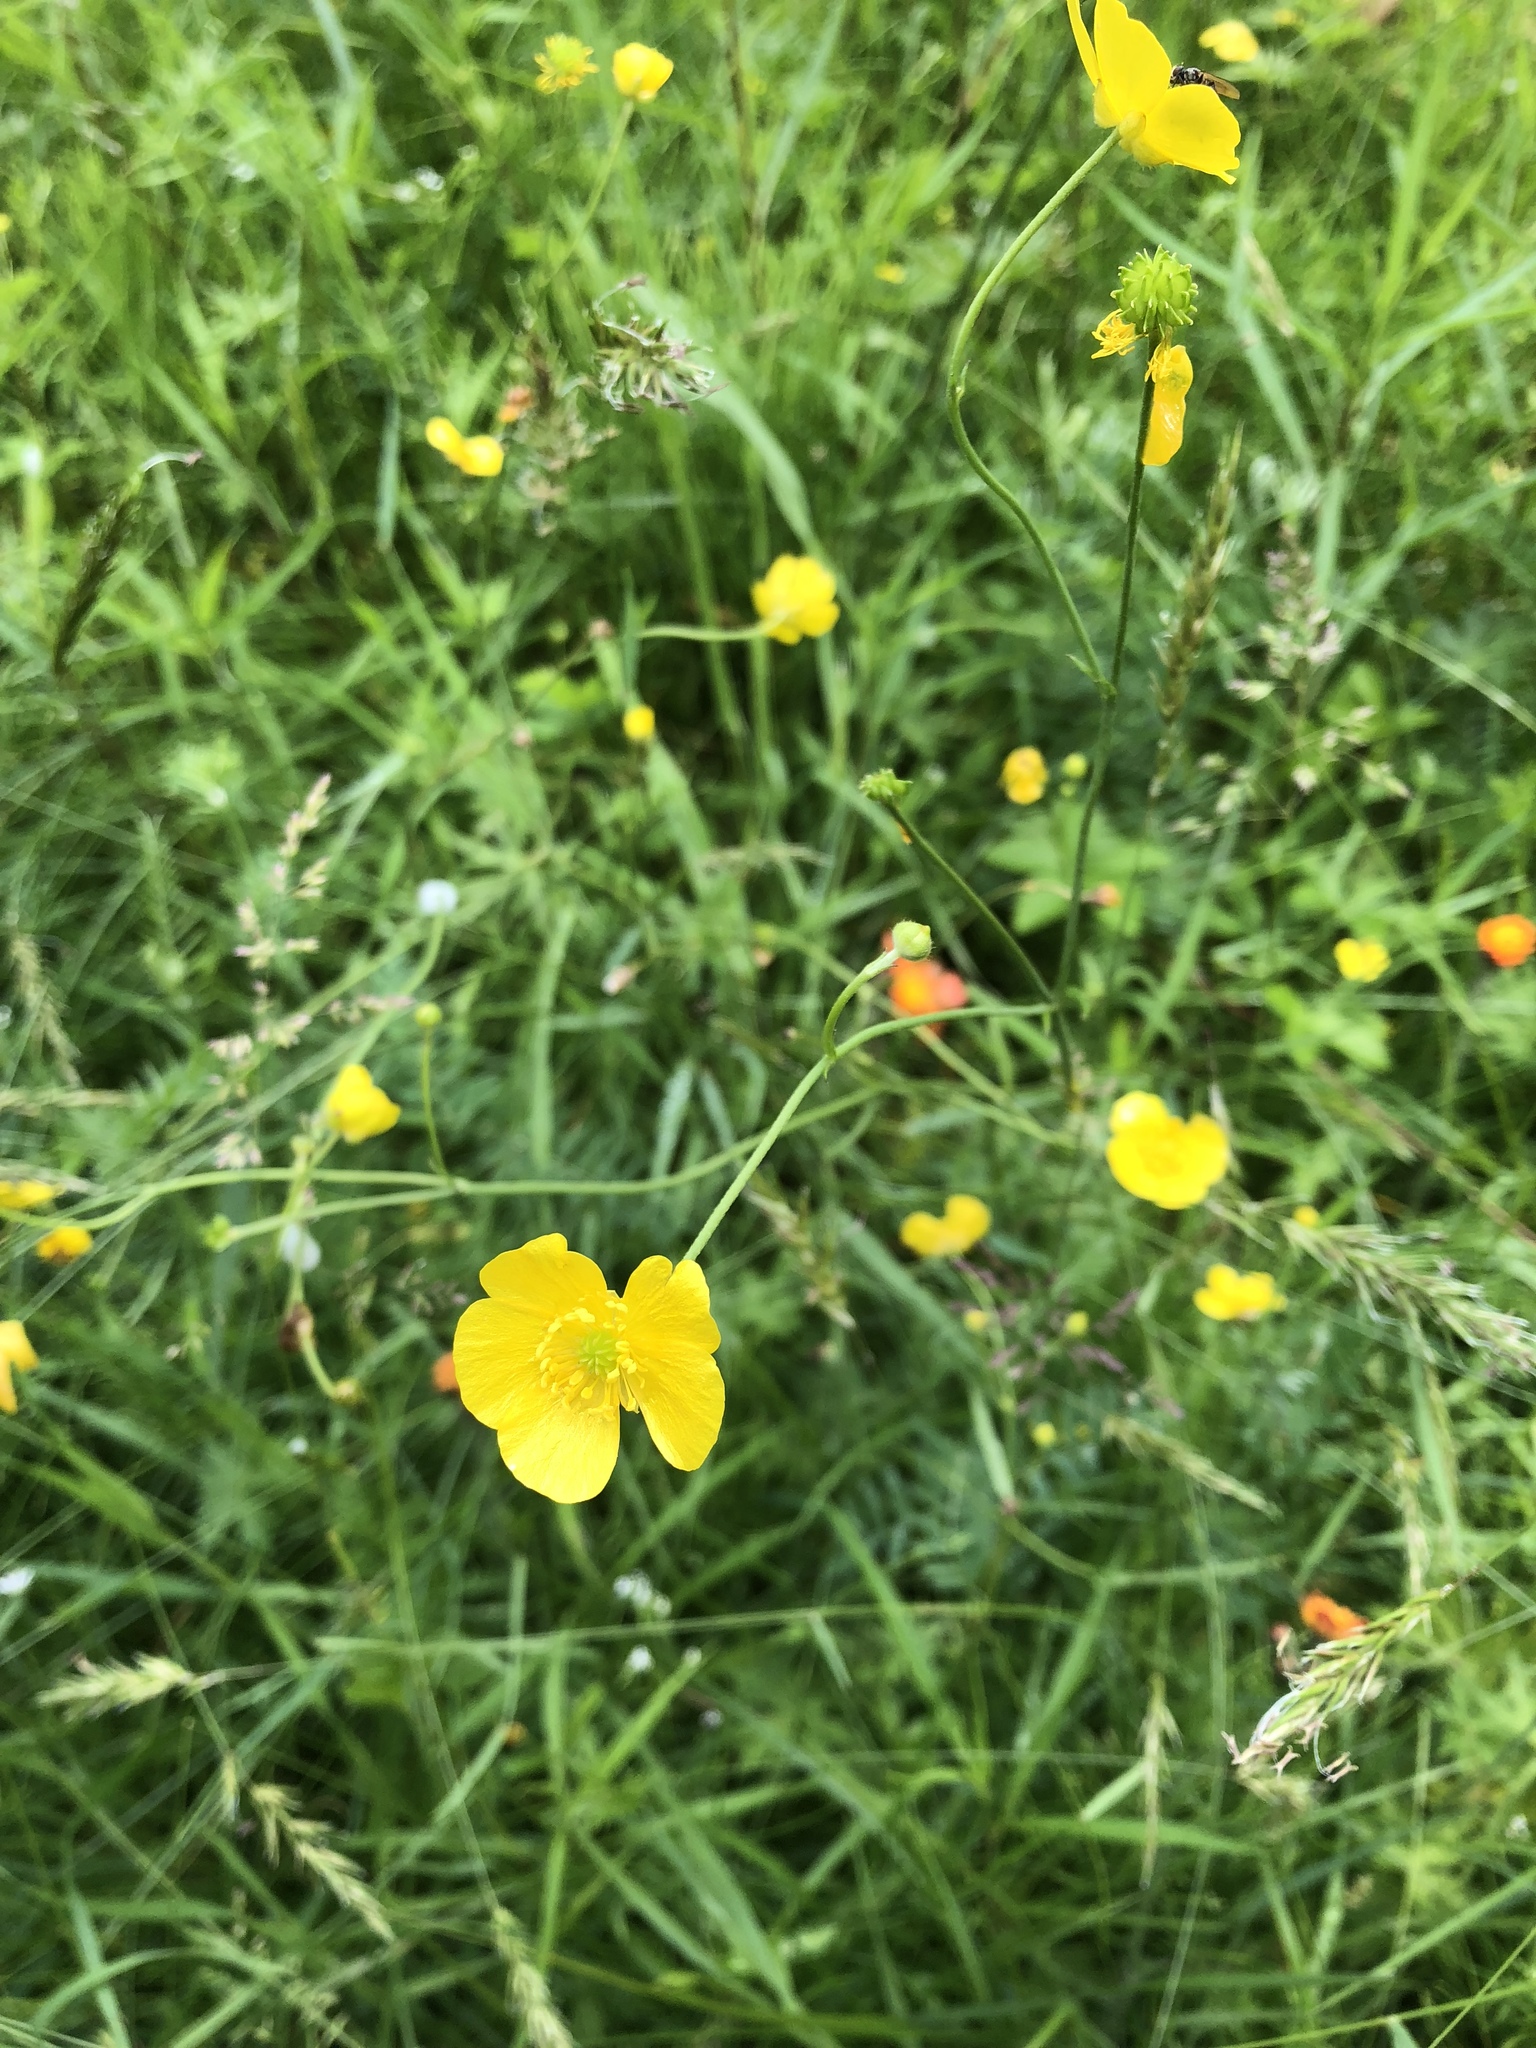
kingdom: Plantae
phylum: Tracheophyta
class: Magnoliopsida
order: Ranunculales
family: Ranunculaceae
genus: Ranunculus
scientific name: Ranunculus acris
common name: Meadow buttercup
